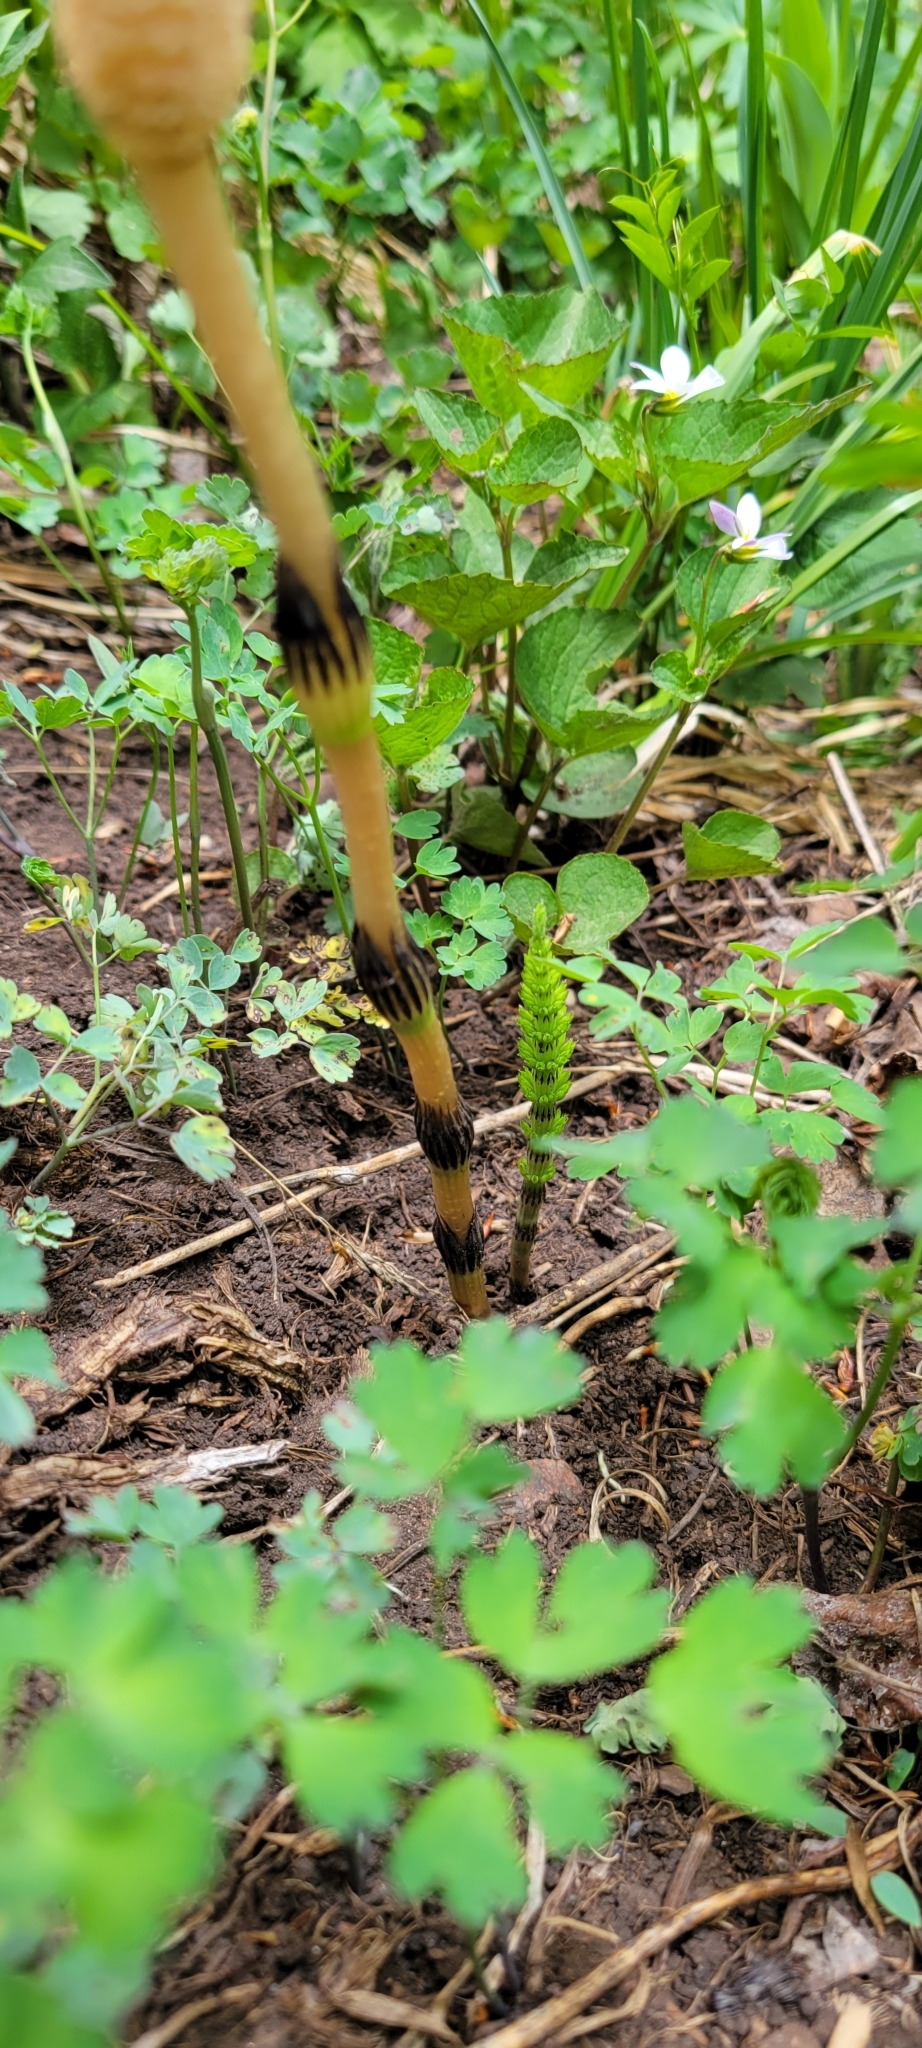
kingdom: Plantae
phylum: Tracheophyta
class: Polypodiopsida
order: Equisetales
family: Equisetaceae
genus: Equisetum
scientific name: Equisetum arvense
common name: Field horsetail
